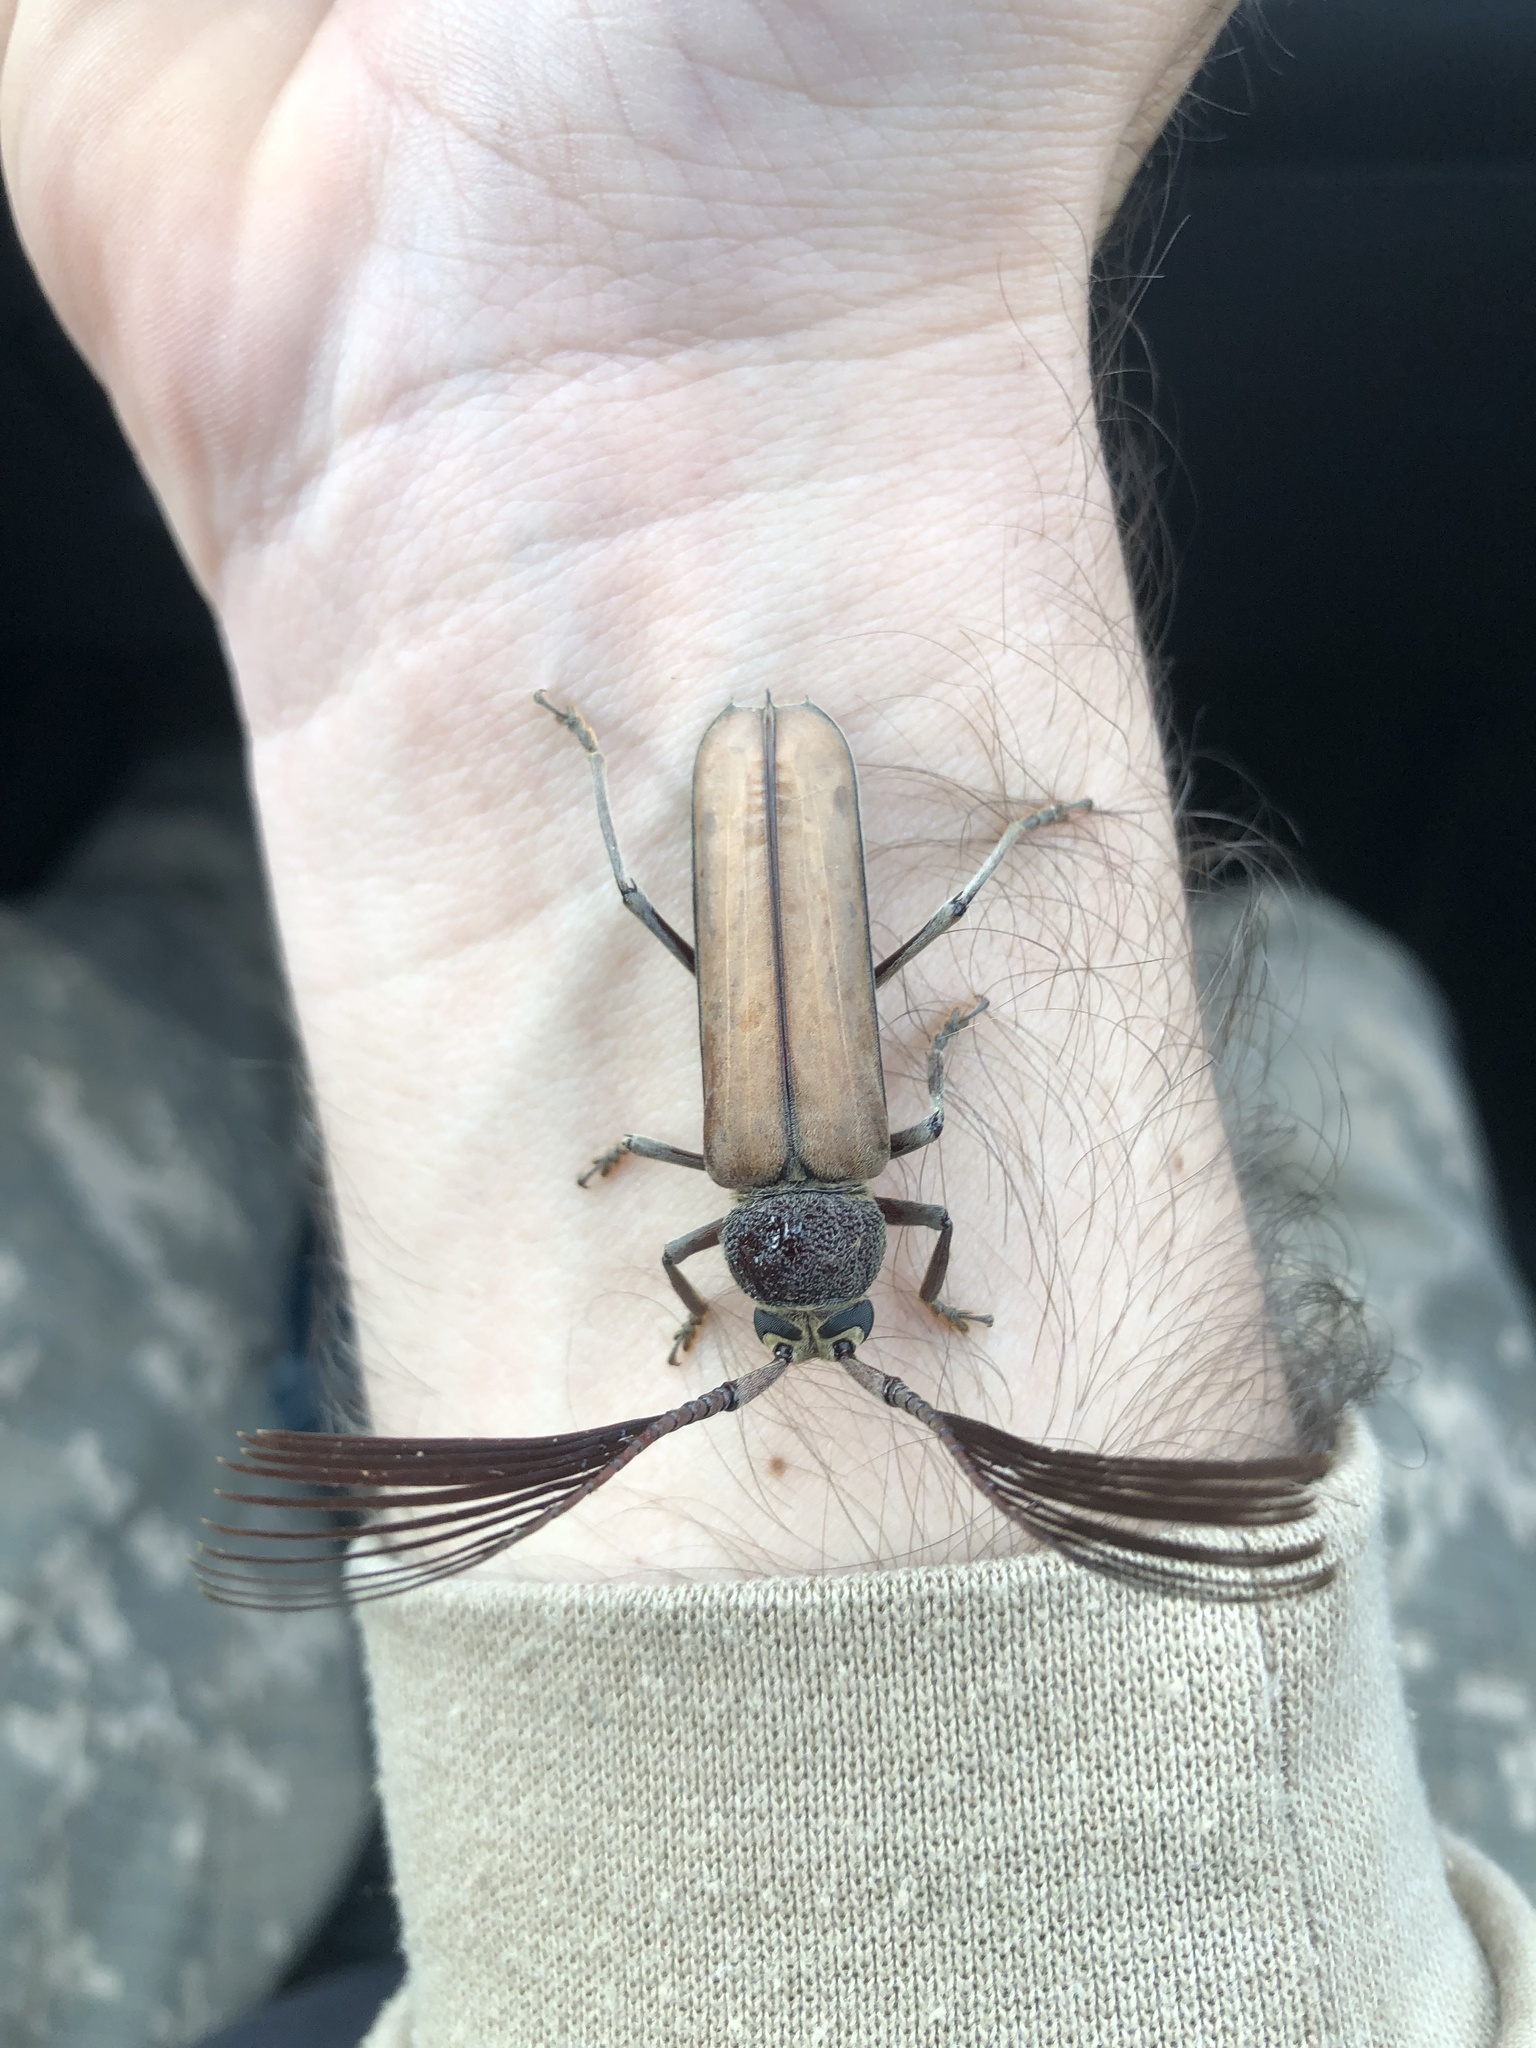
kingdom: Animalia
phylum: Arthropoda
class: Insecta
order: Coleoptera
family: Cerambycidae
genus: Psygmatocerus
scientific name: Psygmatocerus wagleri
